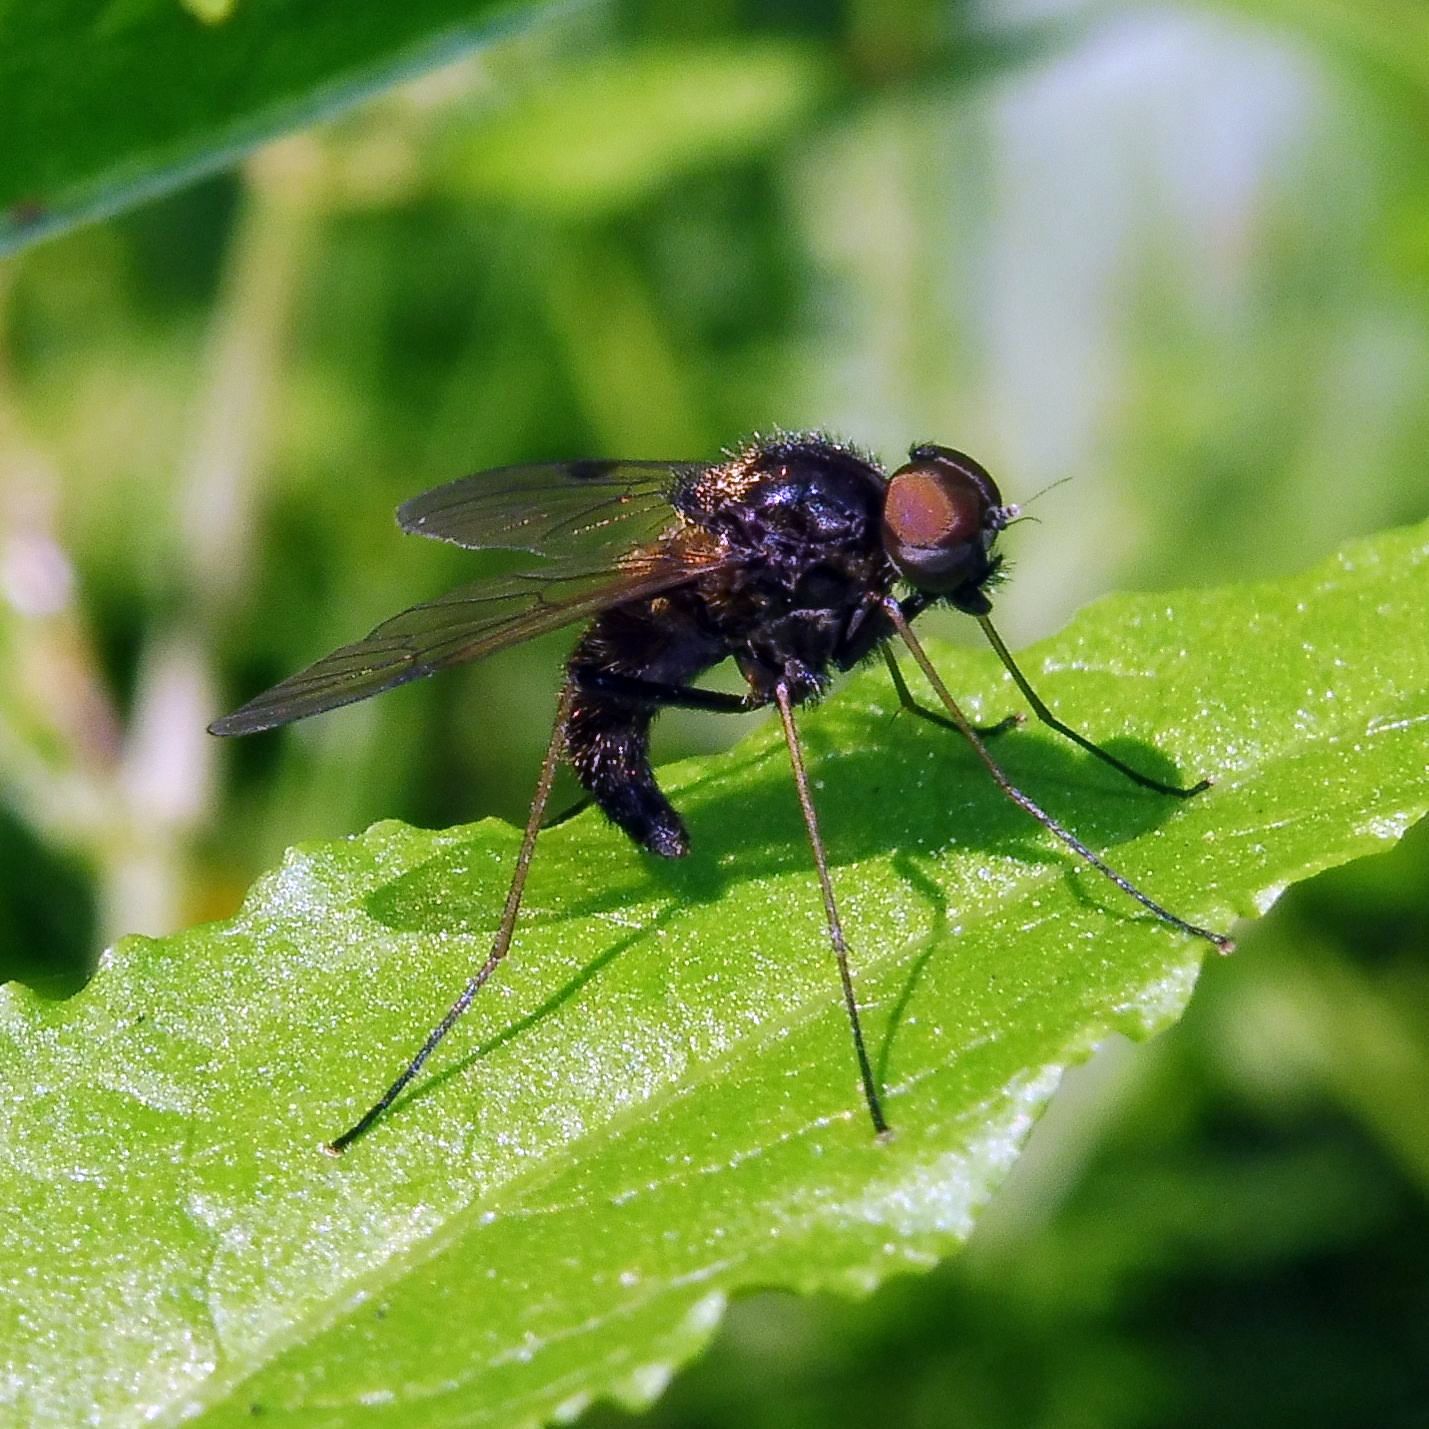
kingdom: Animalia
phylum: Arthropoda
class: Insecta
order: Diptera
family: Rhagionidae
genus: Chrysopilus
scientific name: Chrysopilus cristatus
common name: Black snipefly
